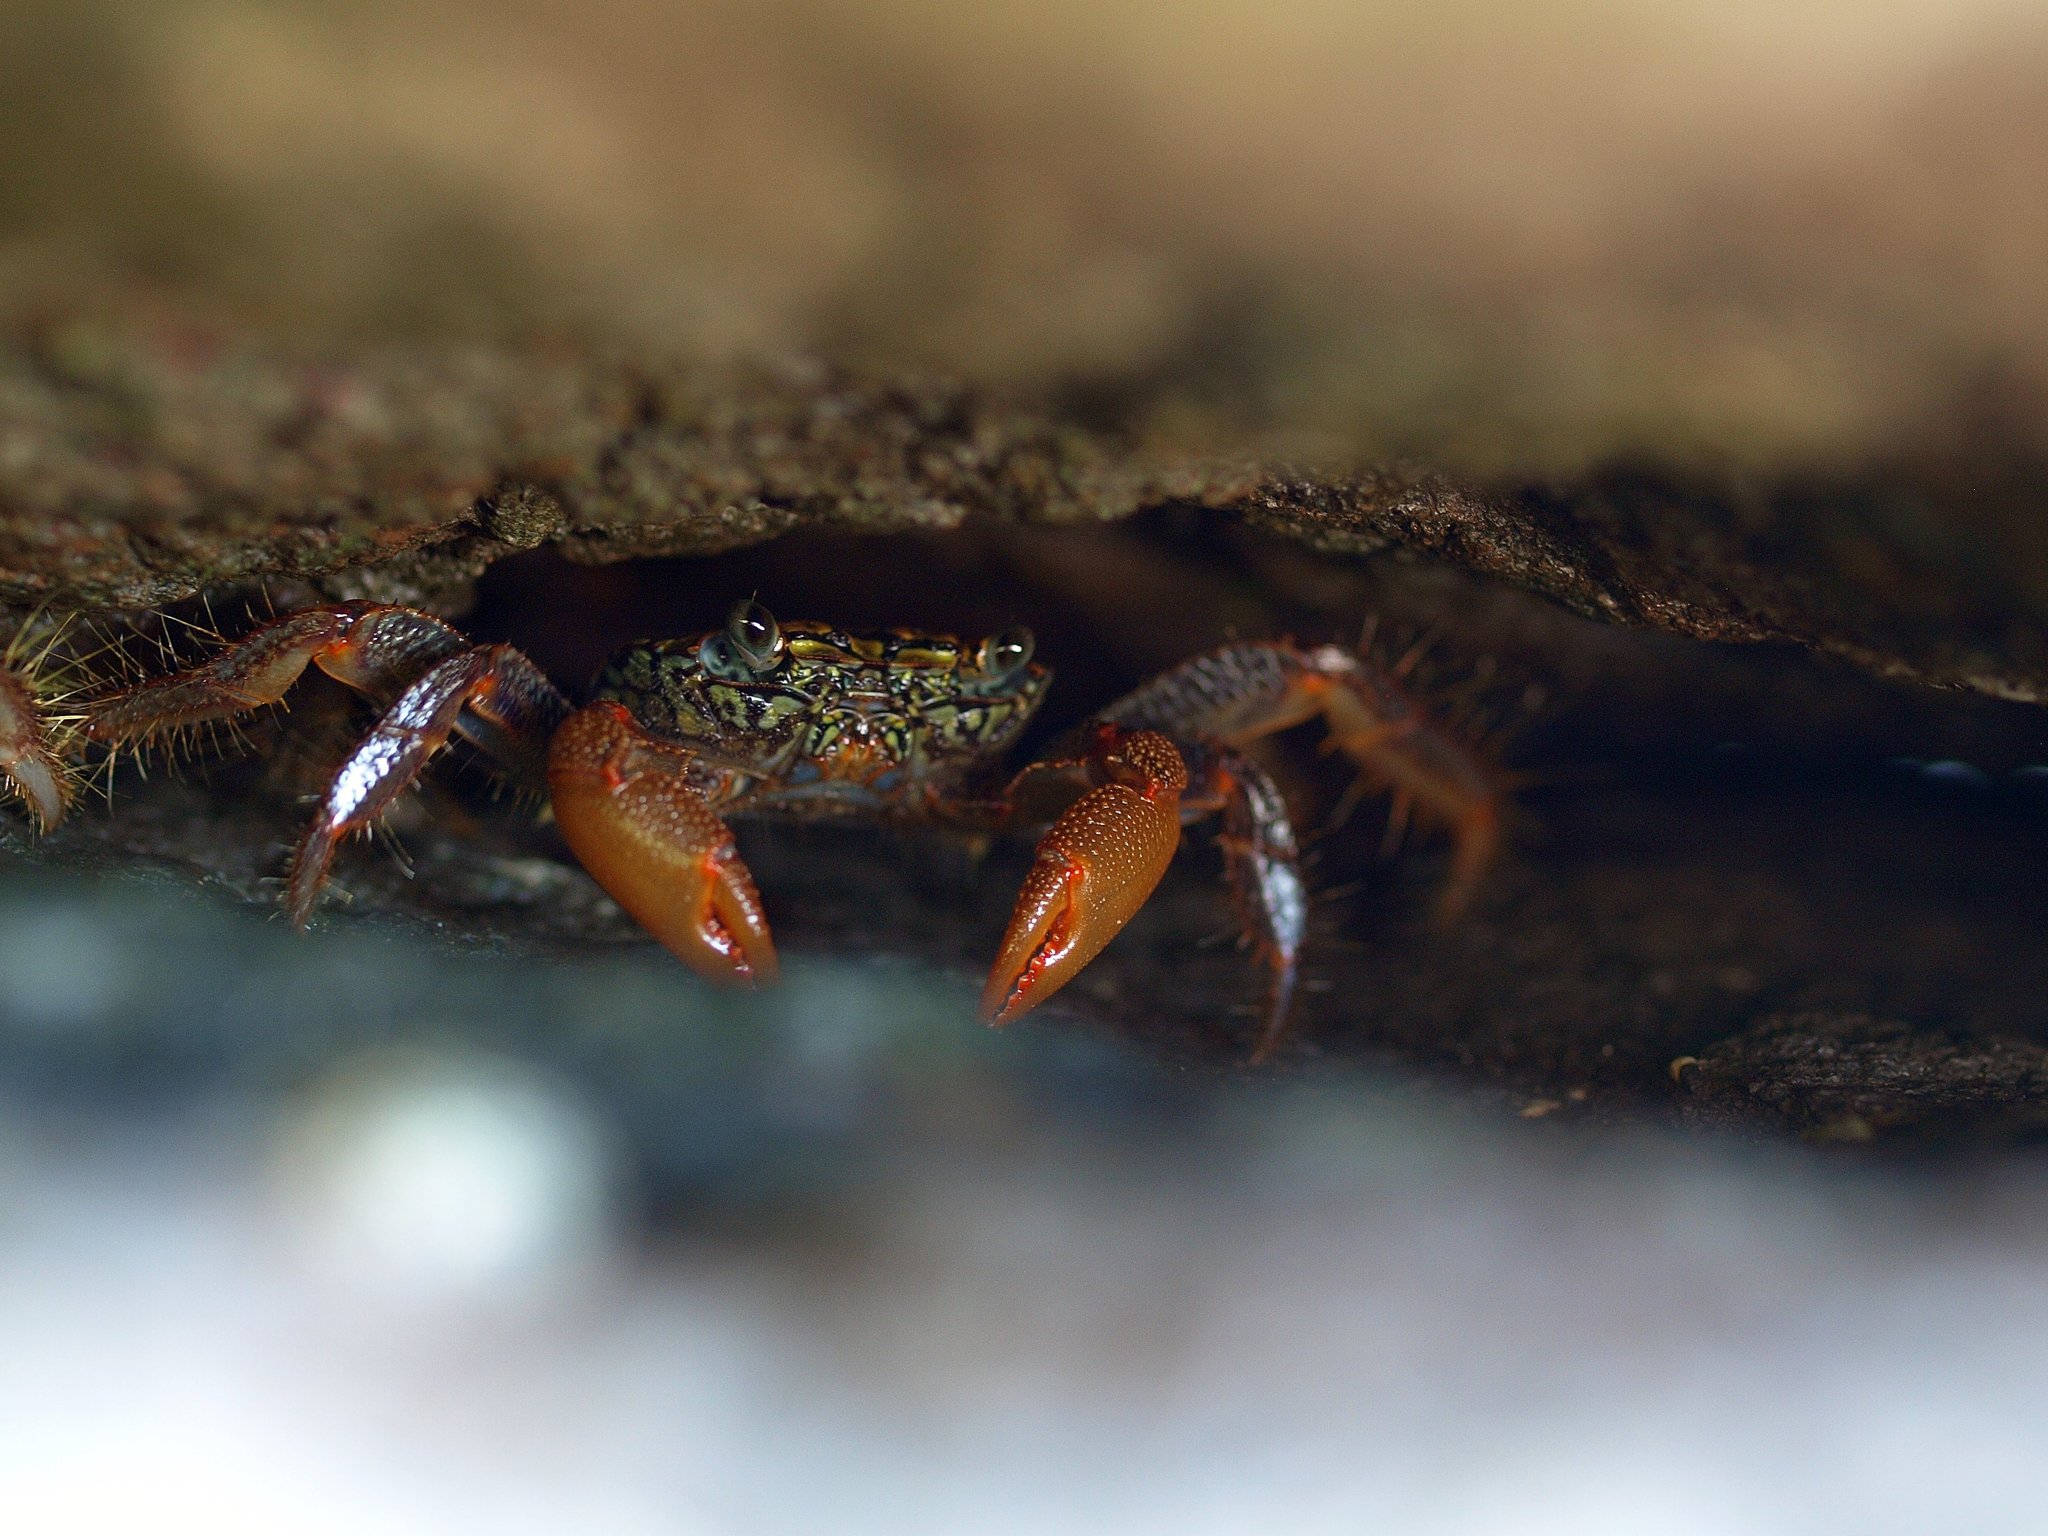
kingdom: Animalia
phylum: Arthropoda
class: Malacostraca
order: Decapoda
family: Grapsidae
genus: Geograpsus
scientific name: Geograpsus lividus
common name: Variegate shore crab
